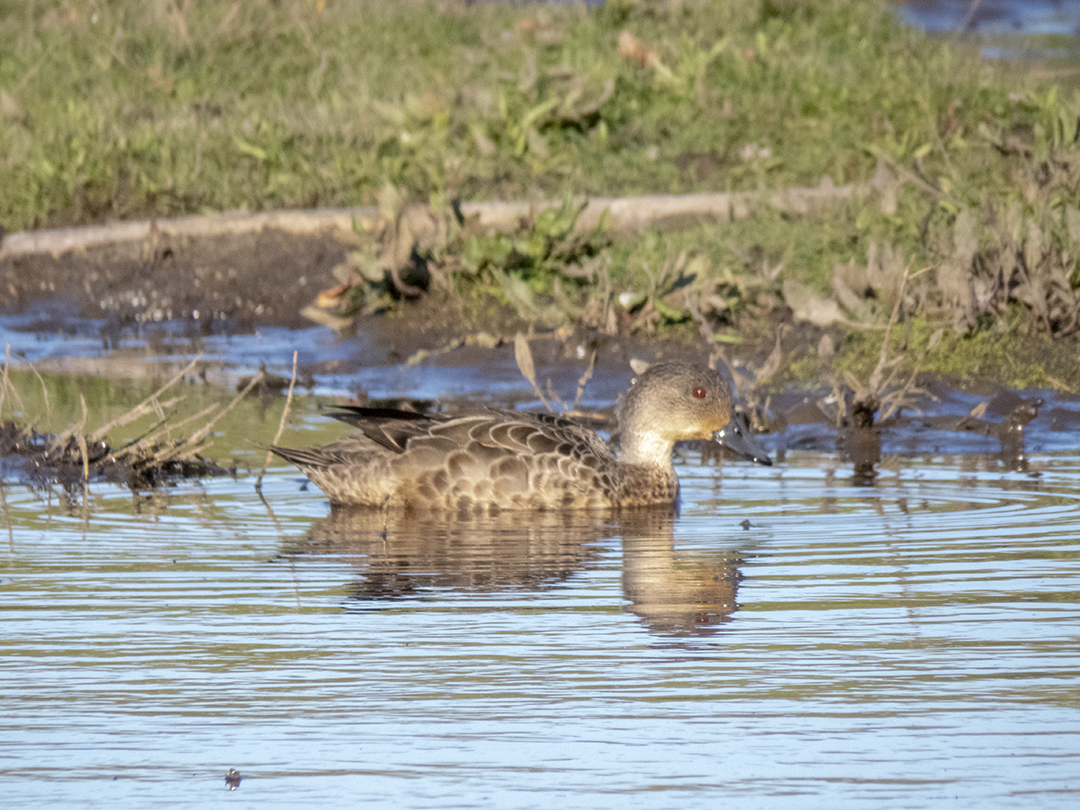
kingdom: Animalia
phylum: Chordata
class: Aves
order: Anseriformes
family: Anatidae
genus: Anas
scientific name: Anas gracilis
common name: Grey teal
